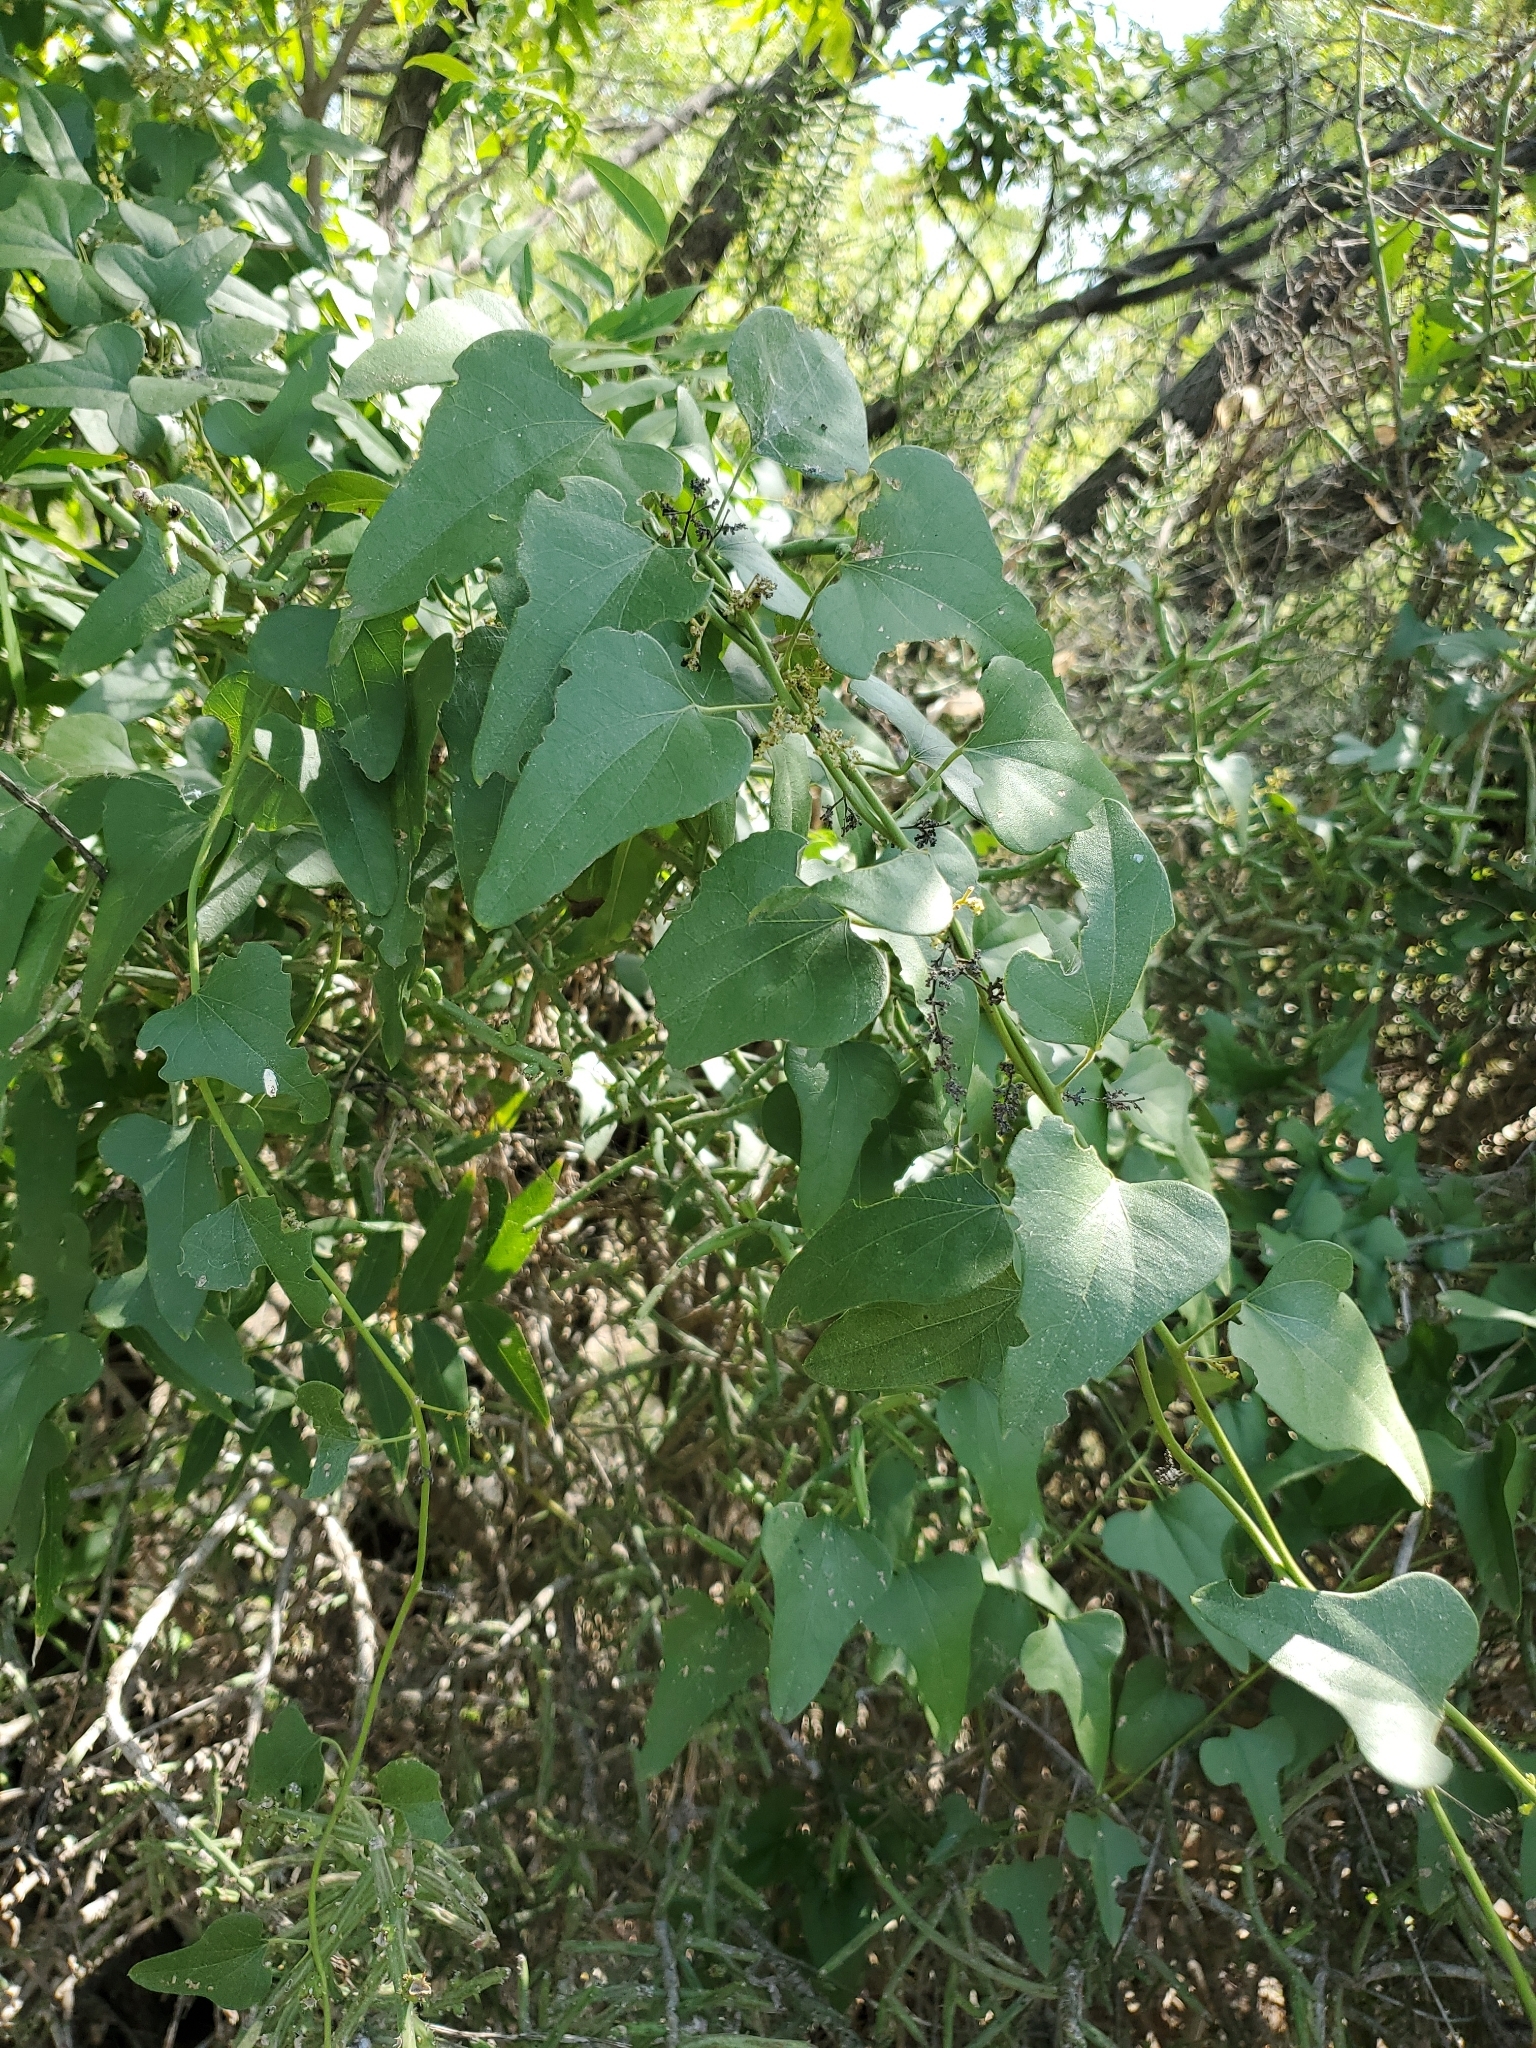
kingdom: Plantae
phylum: Tracheophyta
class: Magnoliopsida
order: Ranunculales
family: Menispermaceae
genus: Cocculus
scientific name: Cocculus carolinus
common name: Carolina moonseed
